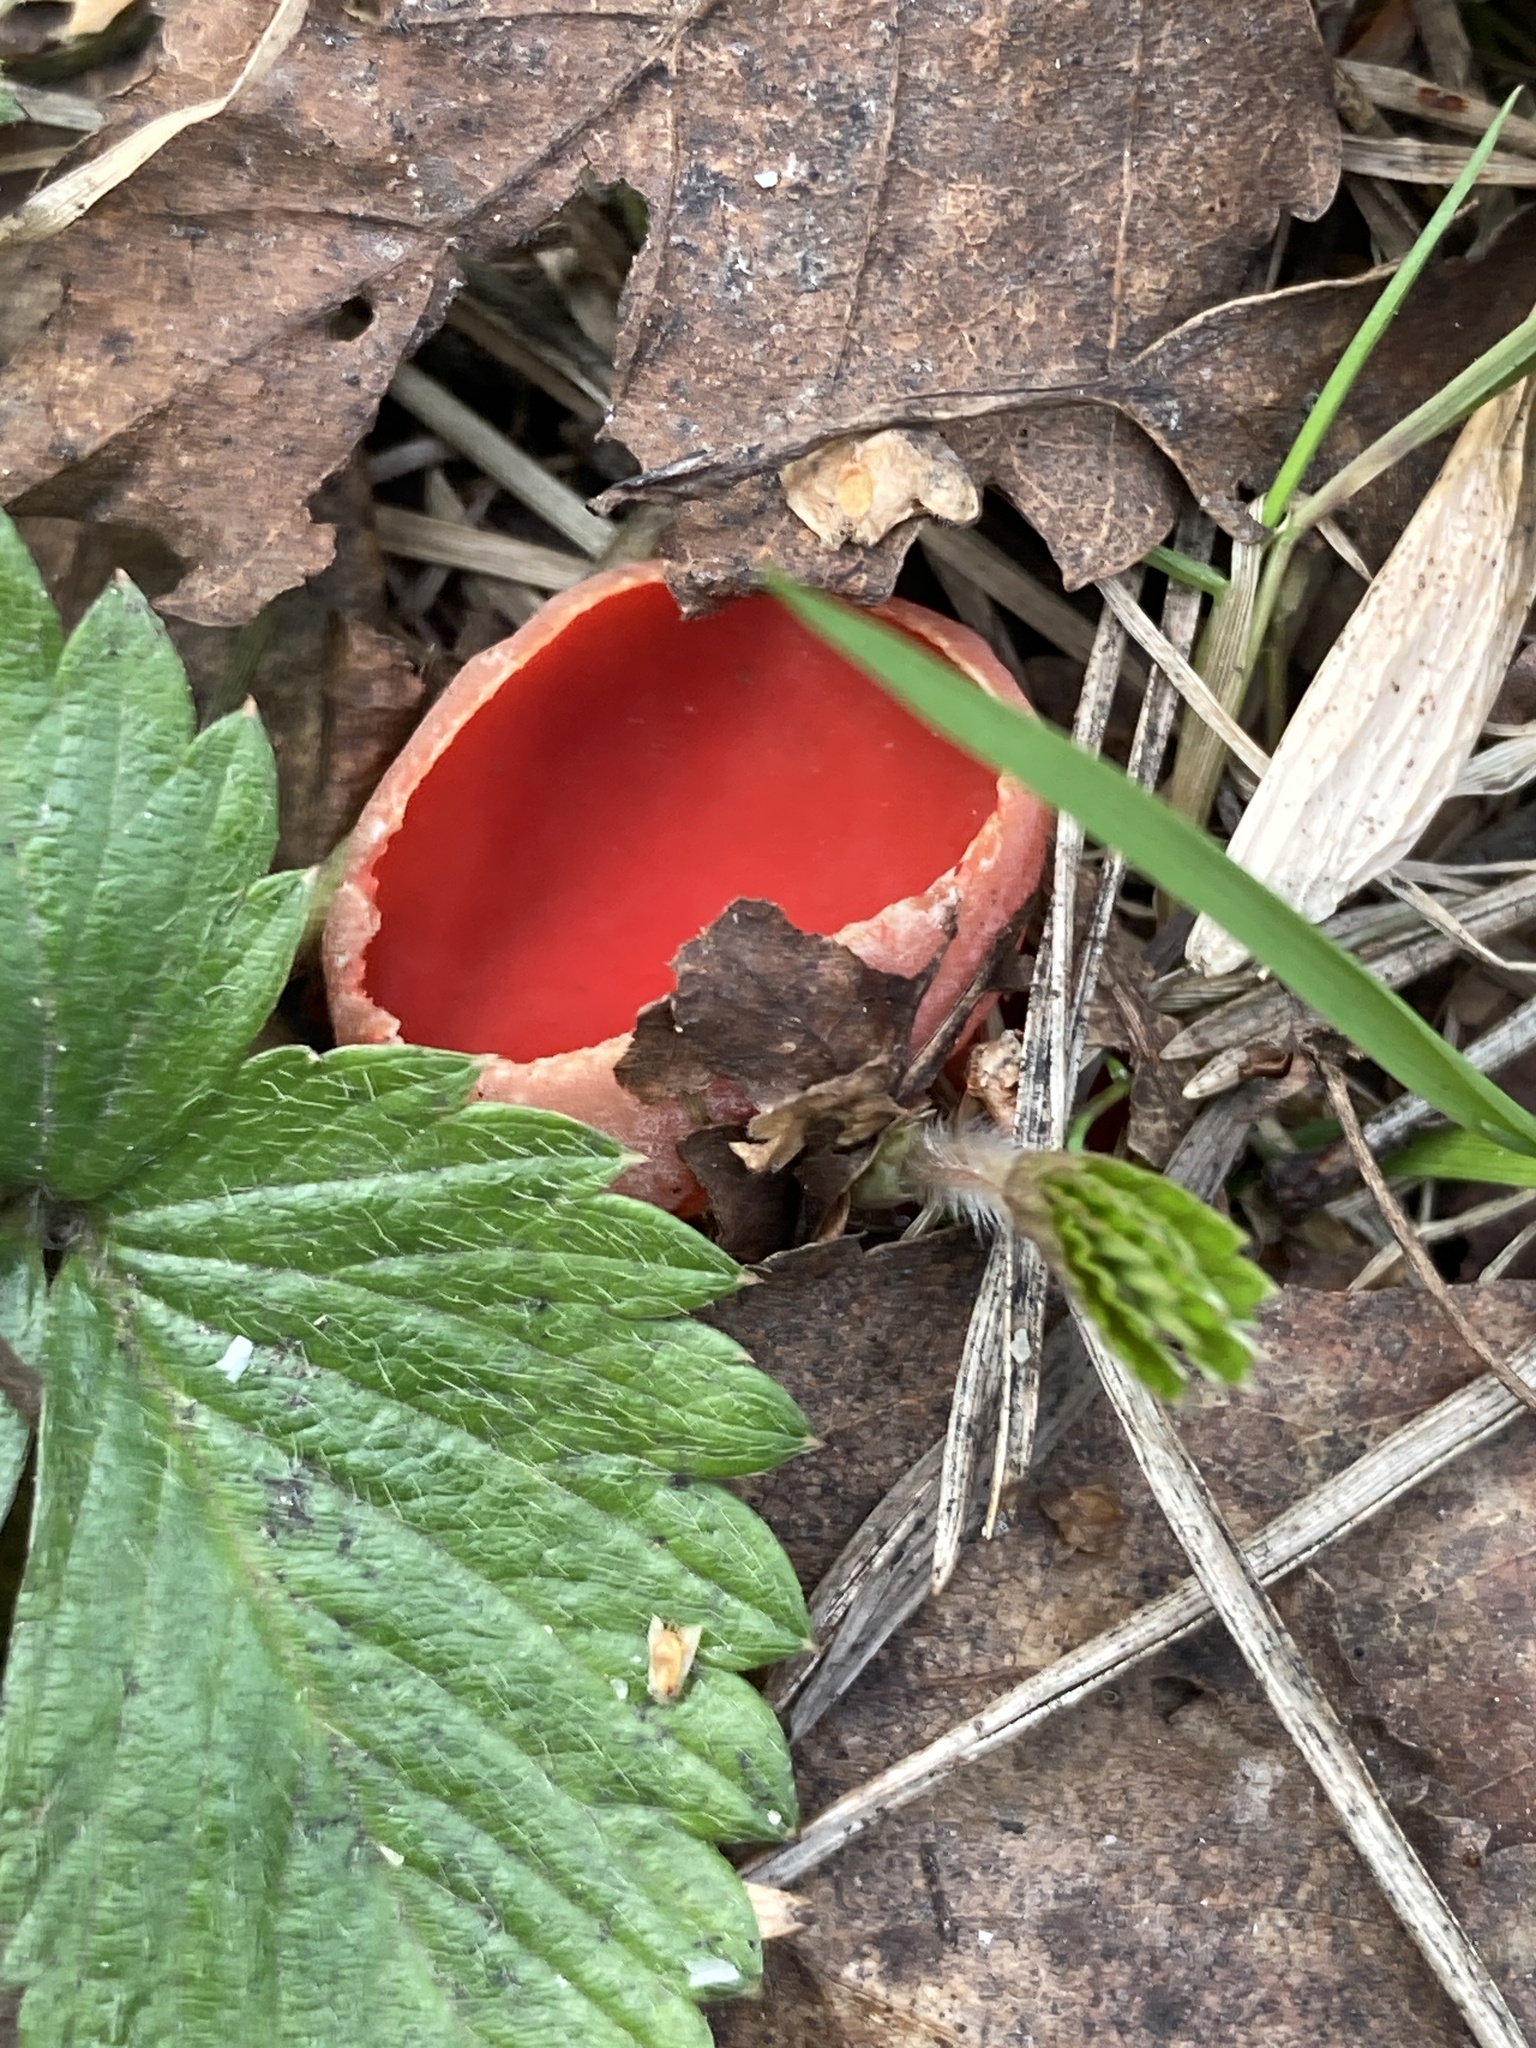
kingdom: Fungi
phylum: Ascomycota
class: Pezizomycetes
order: Pezizales
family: Sarcoscyphaceae
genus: Sarcoscypha
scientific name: Sarcoscypha austriaca
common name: Scarlet elfcup
